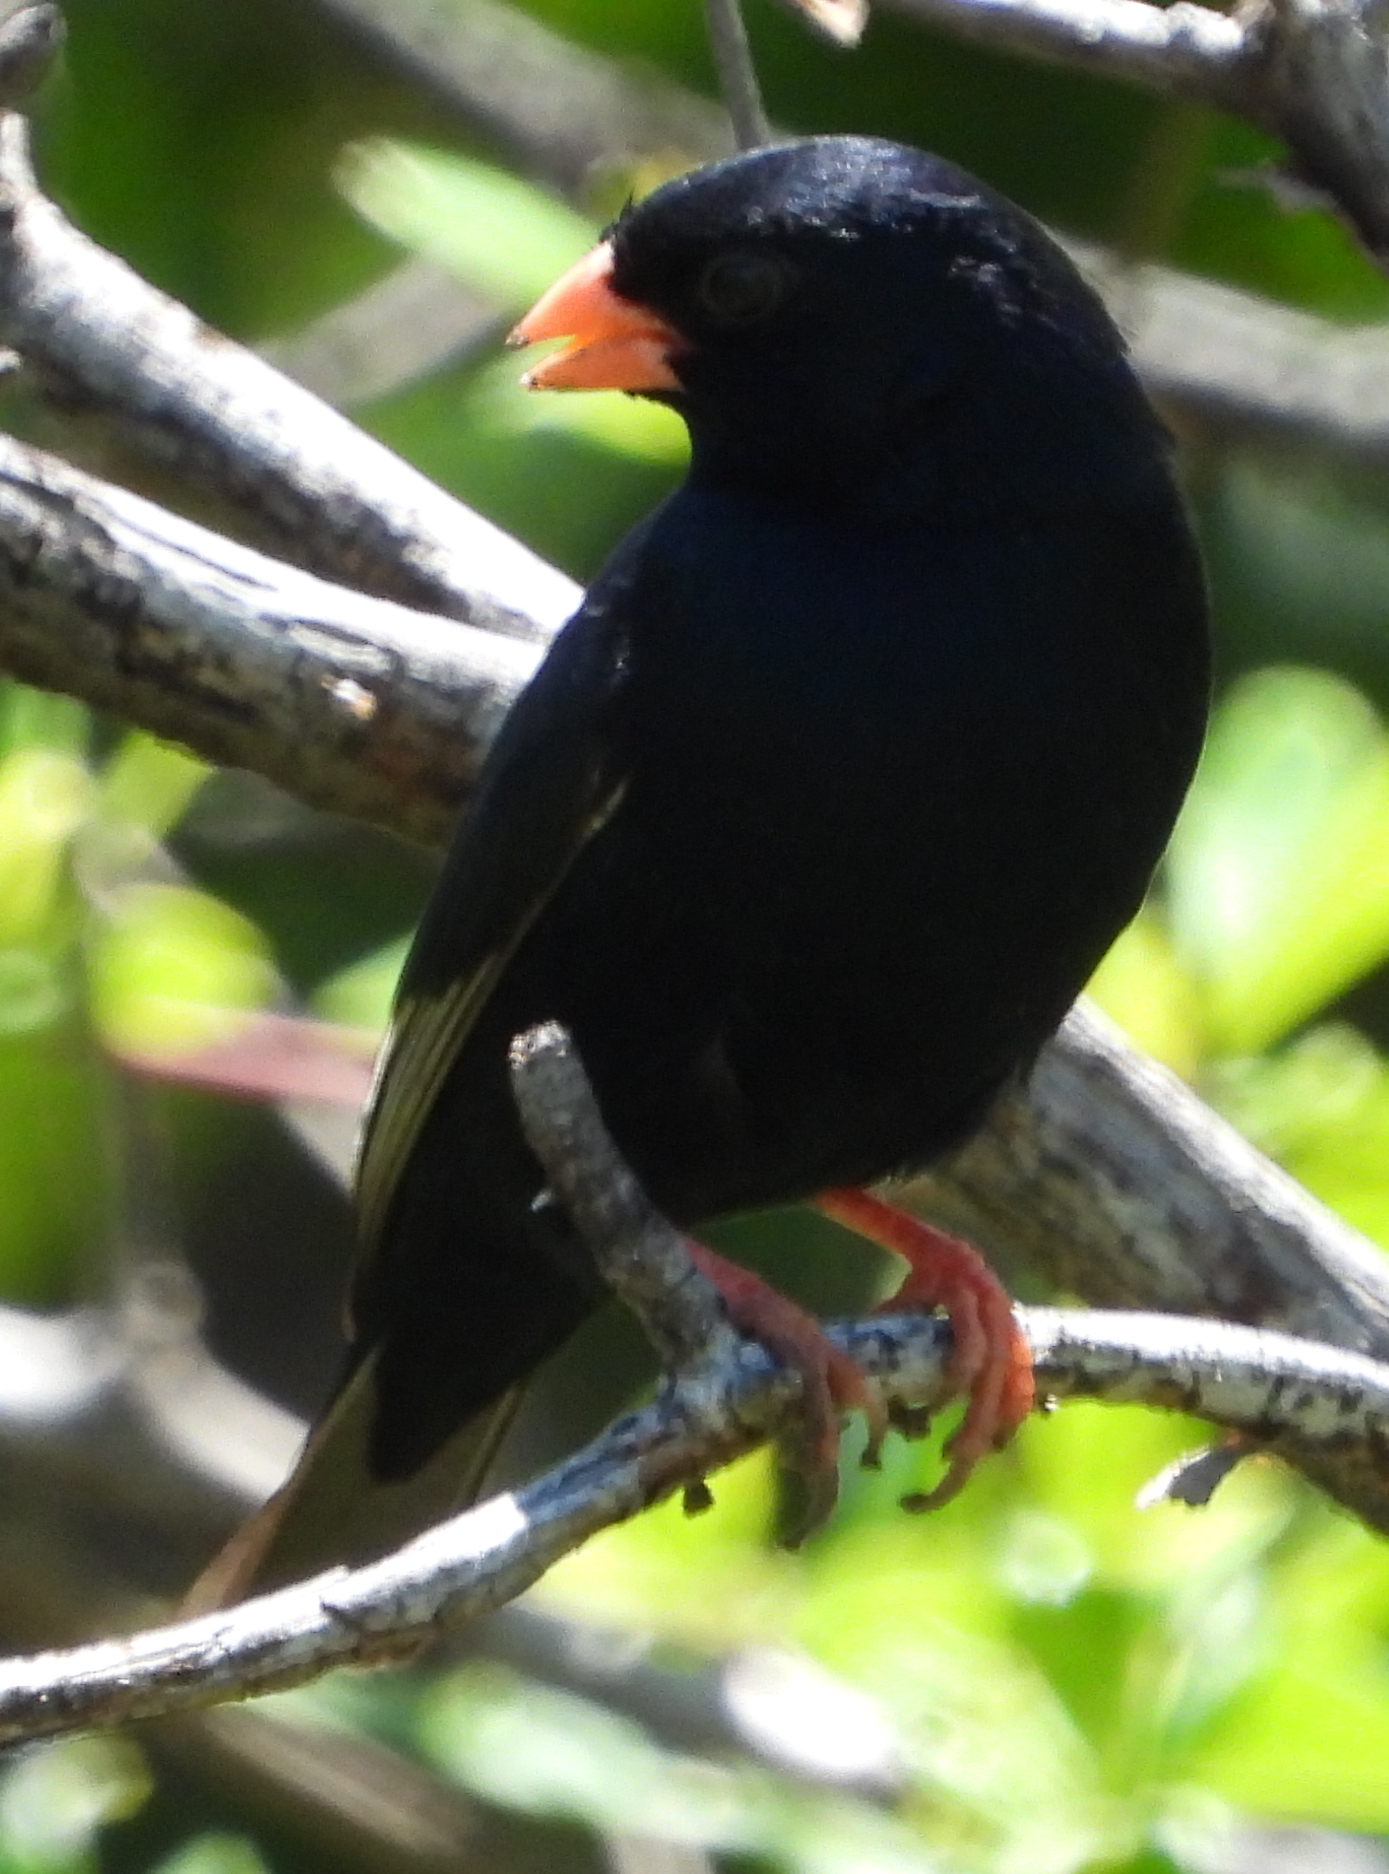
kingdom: Animalia
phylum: Chordata
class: Aves
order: Passeriformes
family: Viduidae
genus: Vidua
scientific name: Vidua chalybeata
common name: Village indigobird
